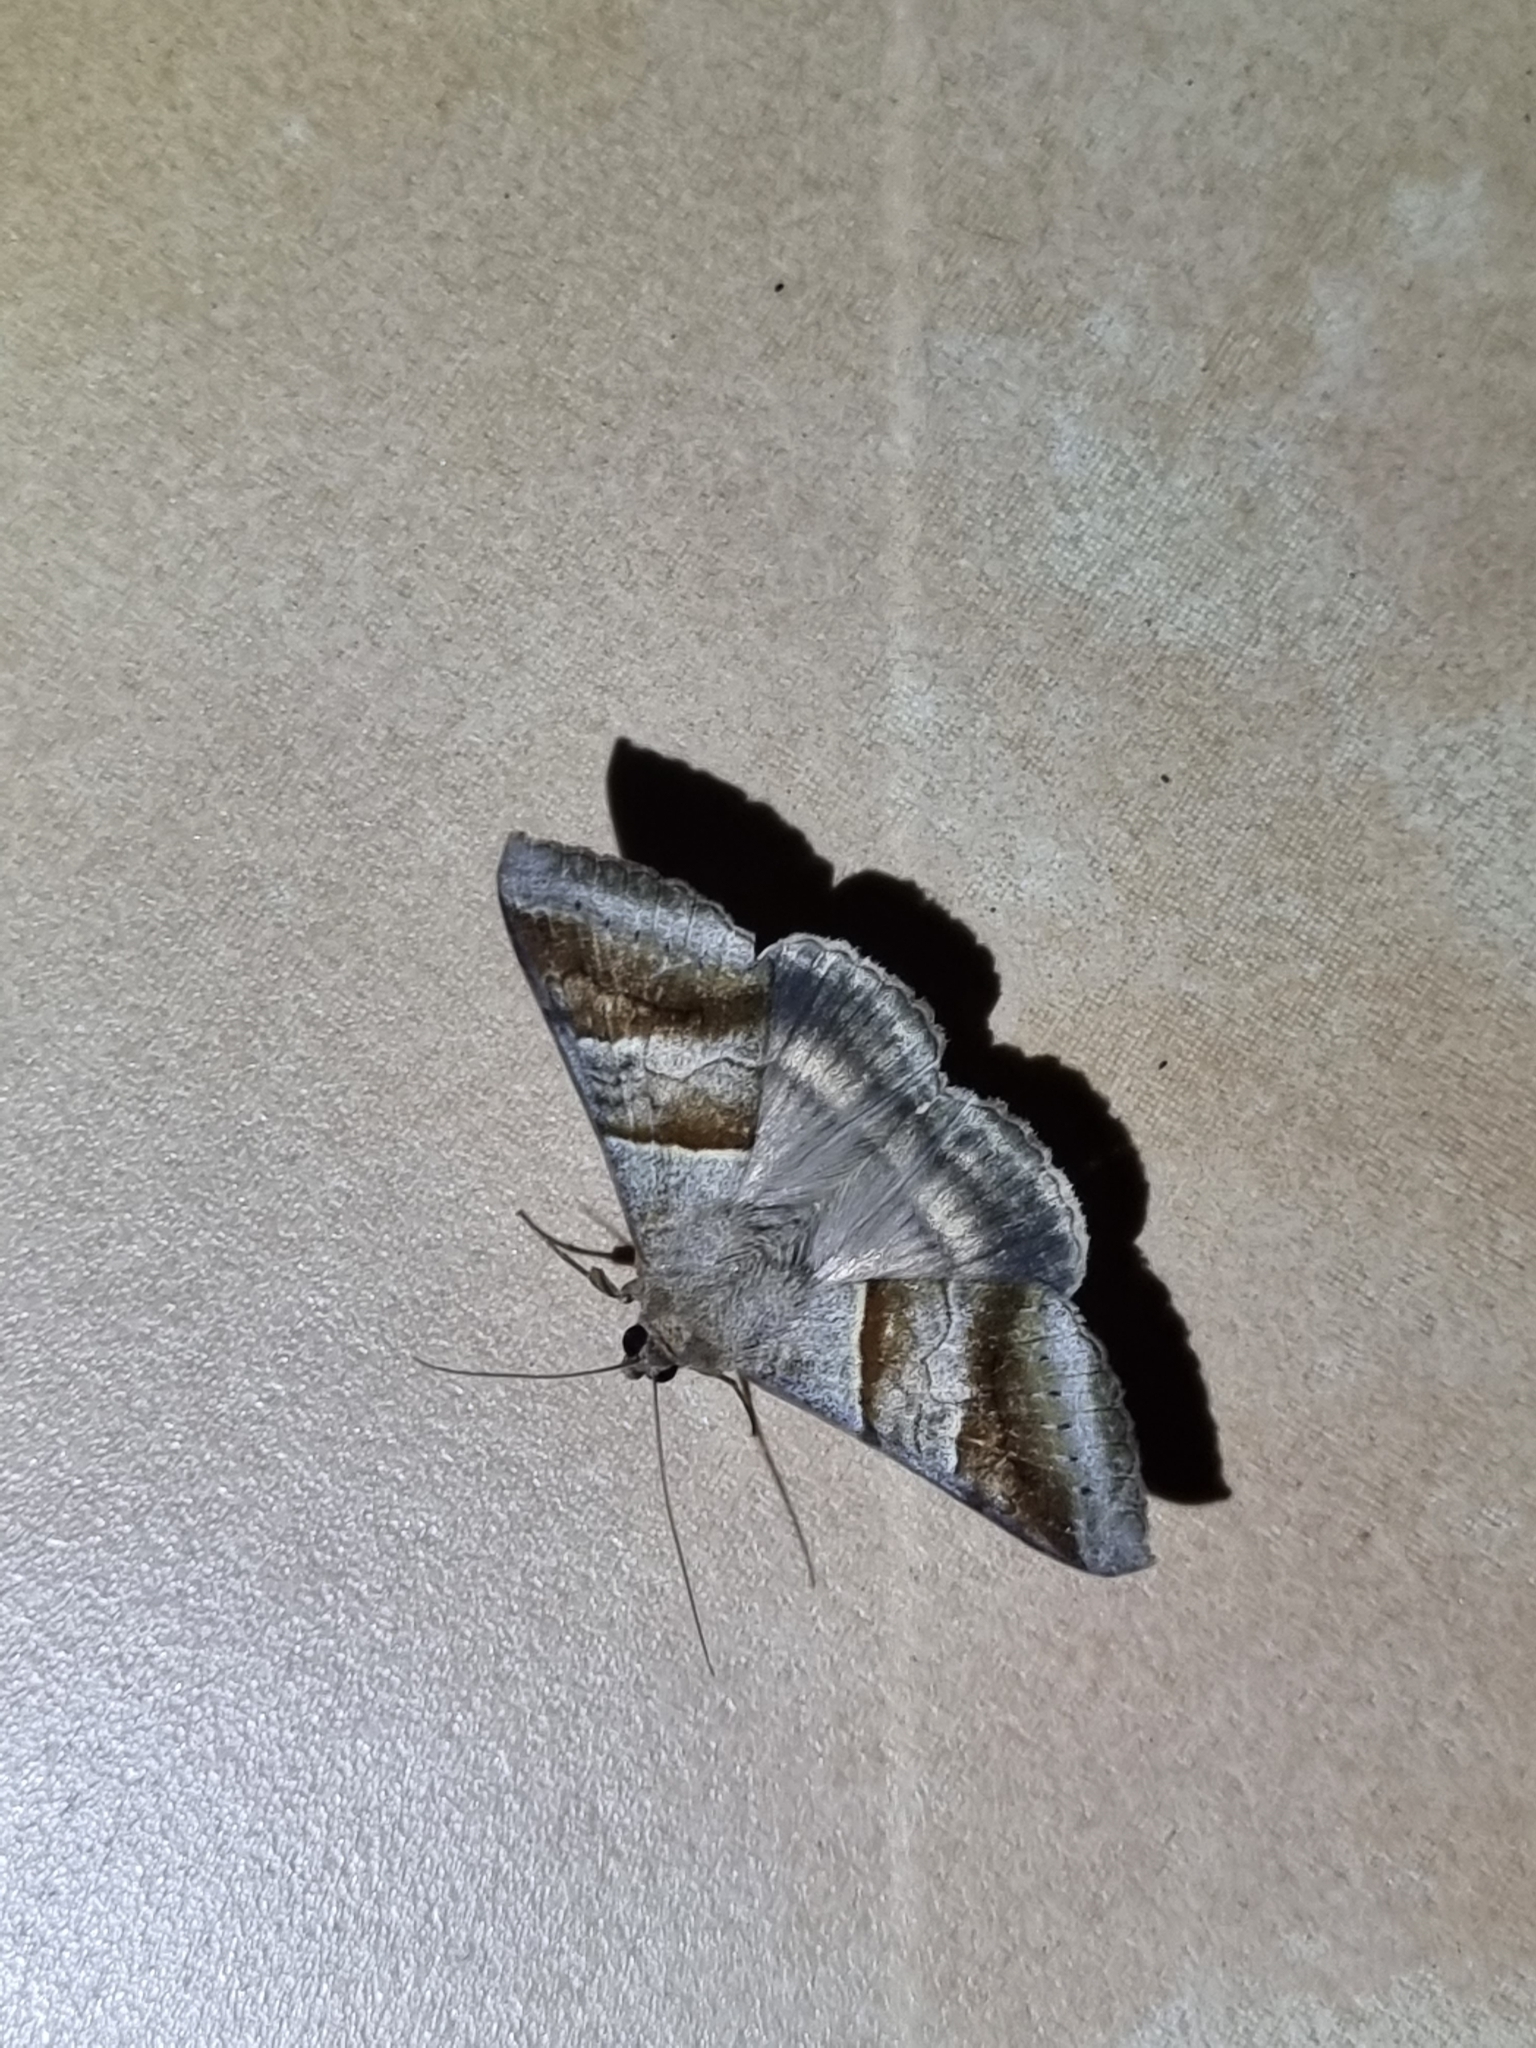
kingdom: Animalia
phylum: Arthropoda
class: Insecta
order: Lepidoptera
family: Erebidae
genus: Mocis
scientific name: Mocis trifasciata
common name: Triple-barred
